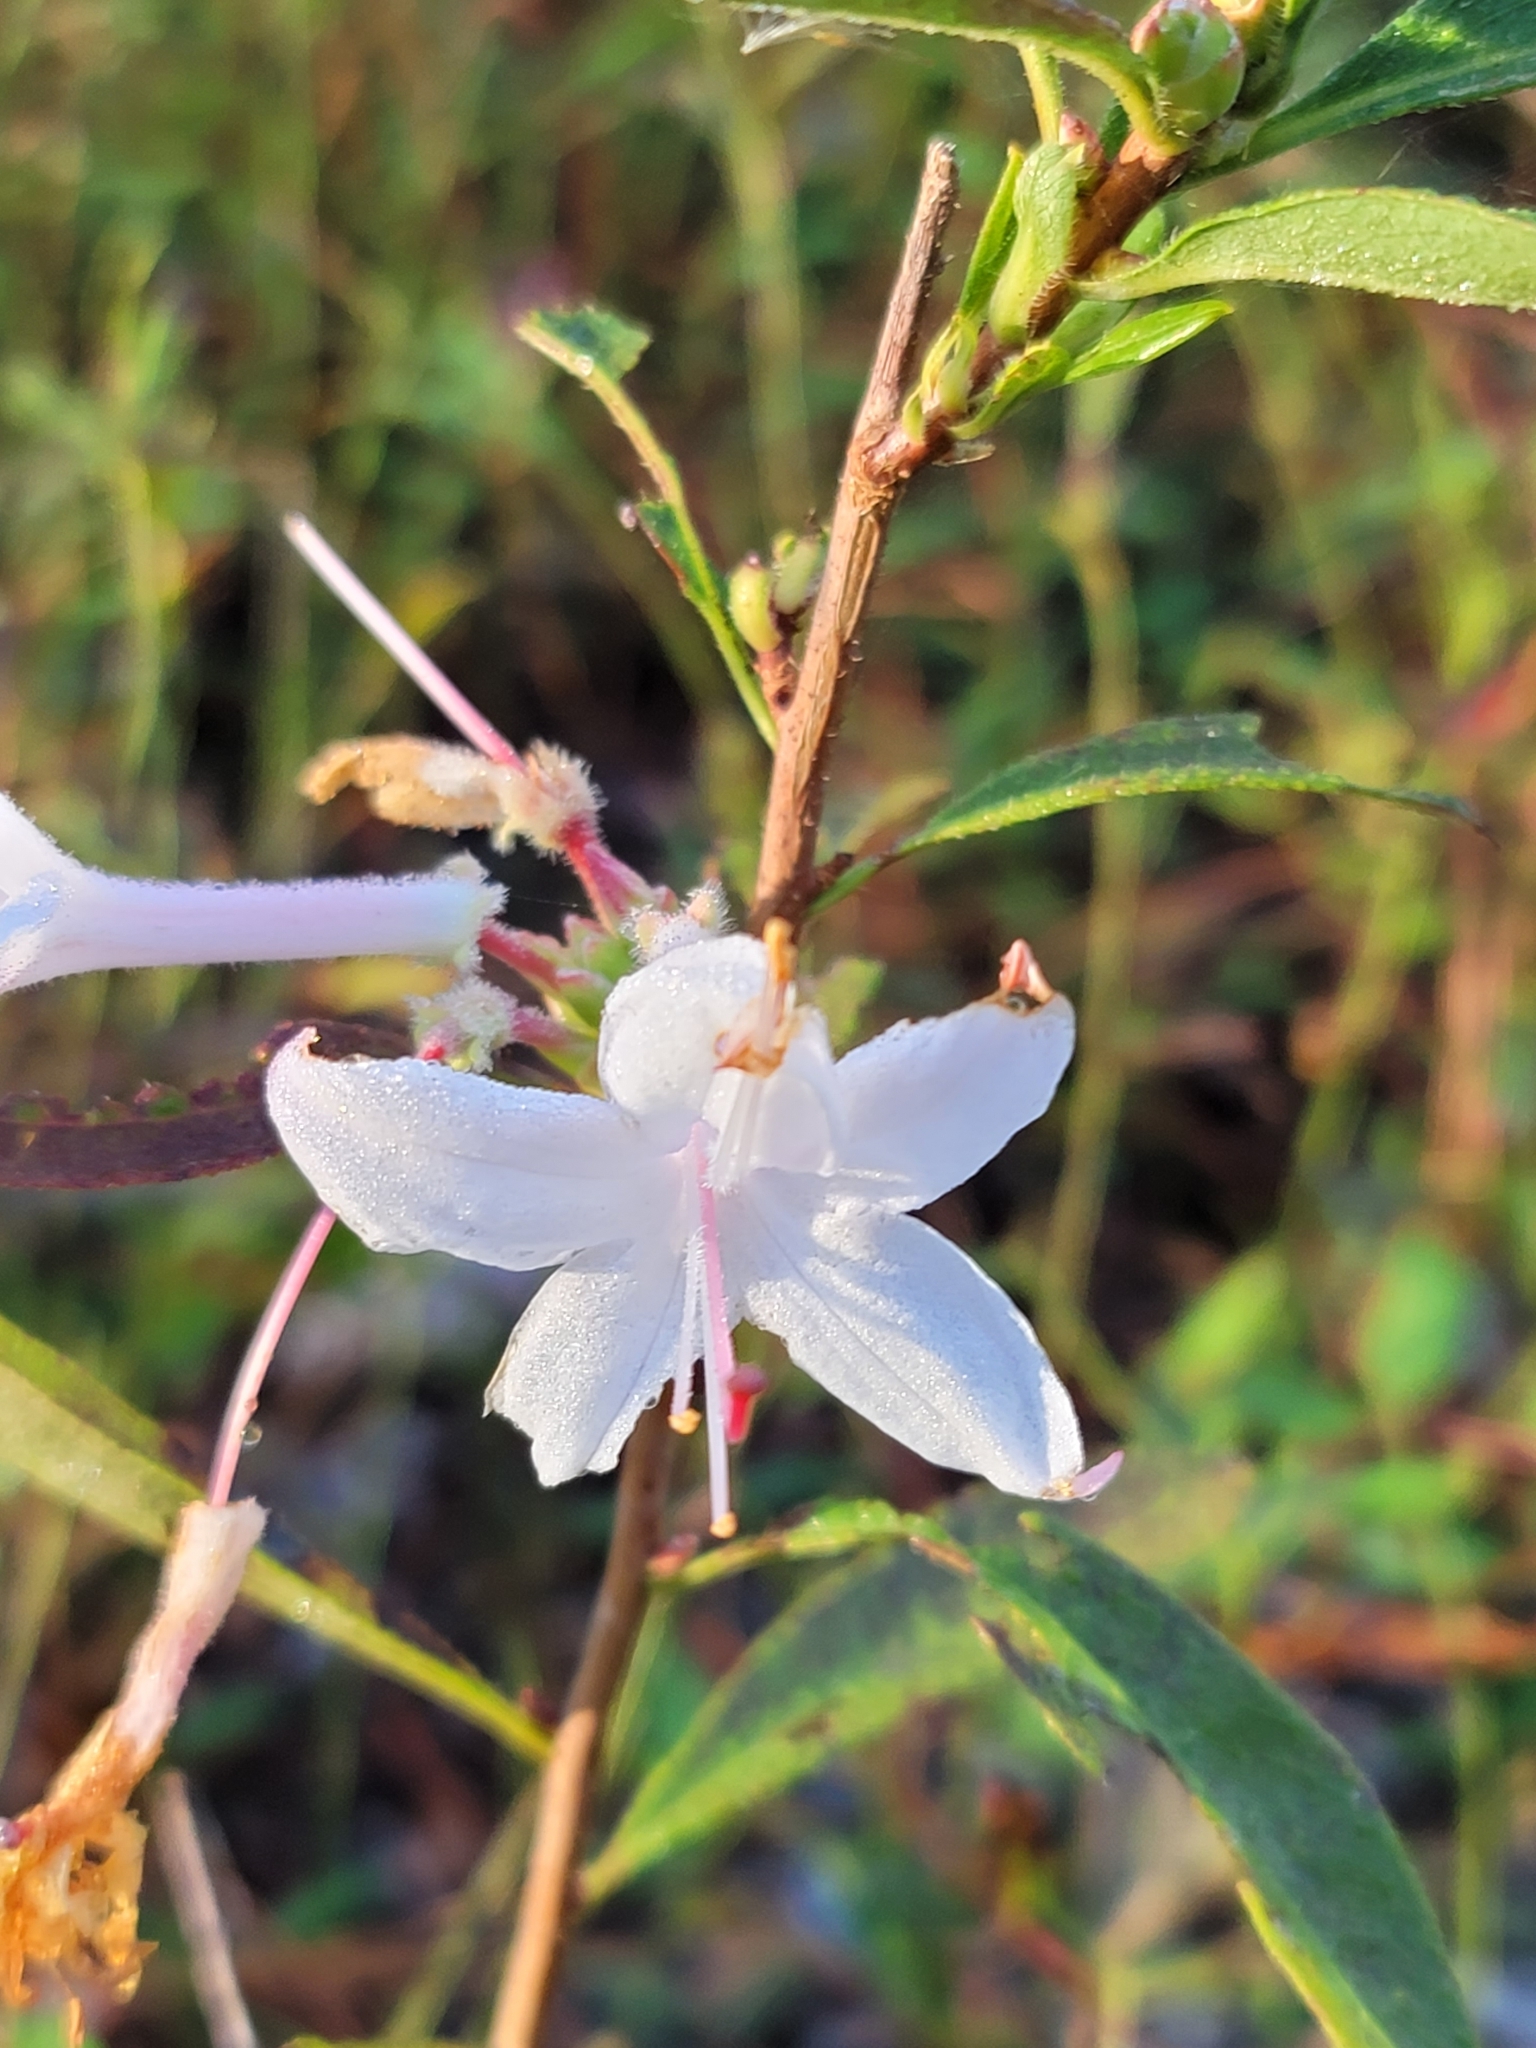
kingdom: Plantae
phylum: Tracheophyta
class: Magnoliopsida
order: Ericales
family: Ericaceae
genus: Rhododendron
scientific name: Rhododendron viscosum
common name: Clammy azalea
